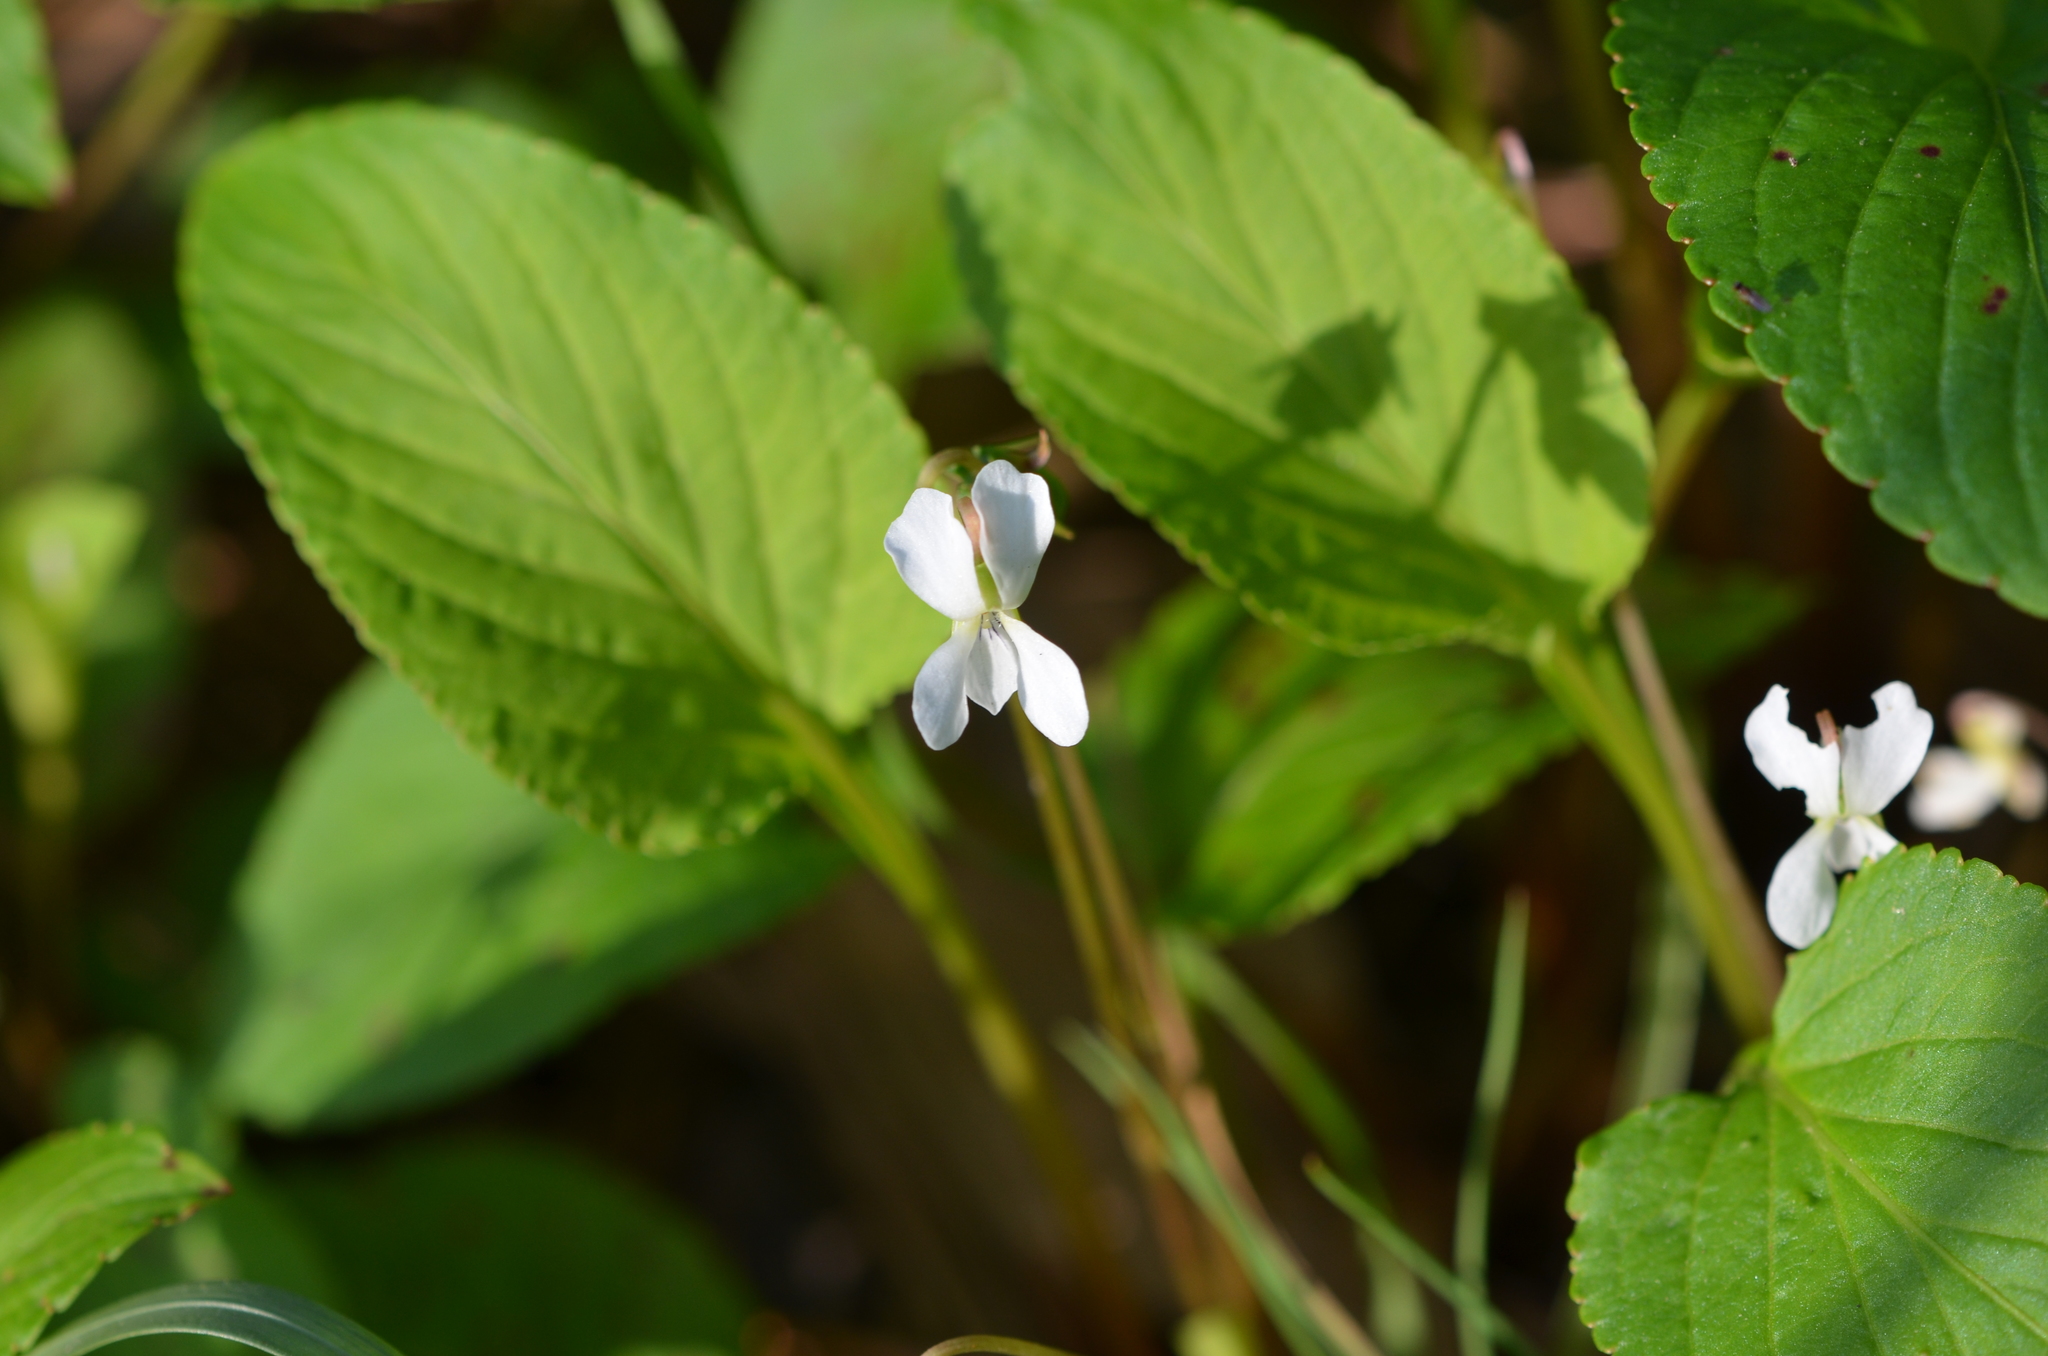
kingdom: Plantae
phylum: Tracheophyta
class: Magnoliopsida
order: Malpighiales
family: Violaceae
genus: Viola
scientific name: Viola primulifolia
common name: Primrose-leaf violet
